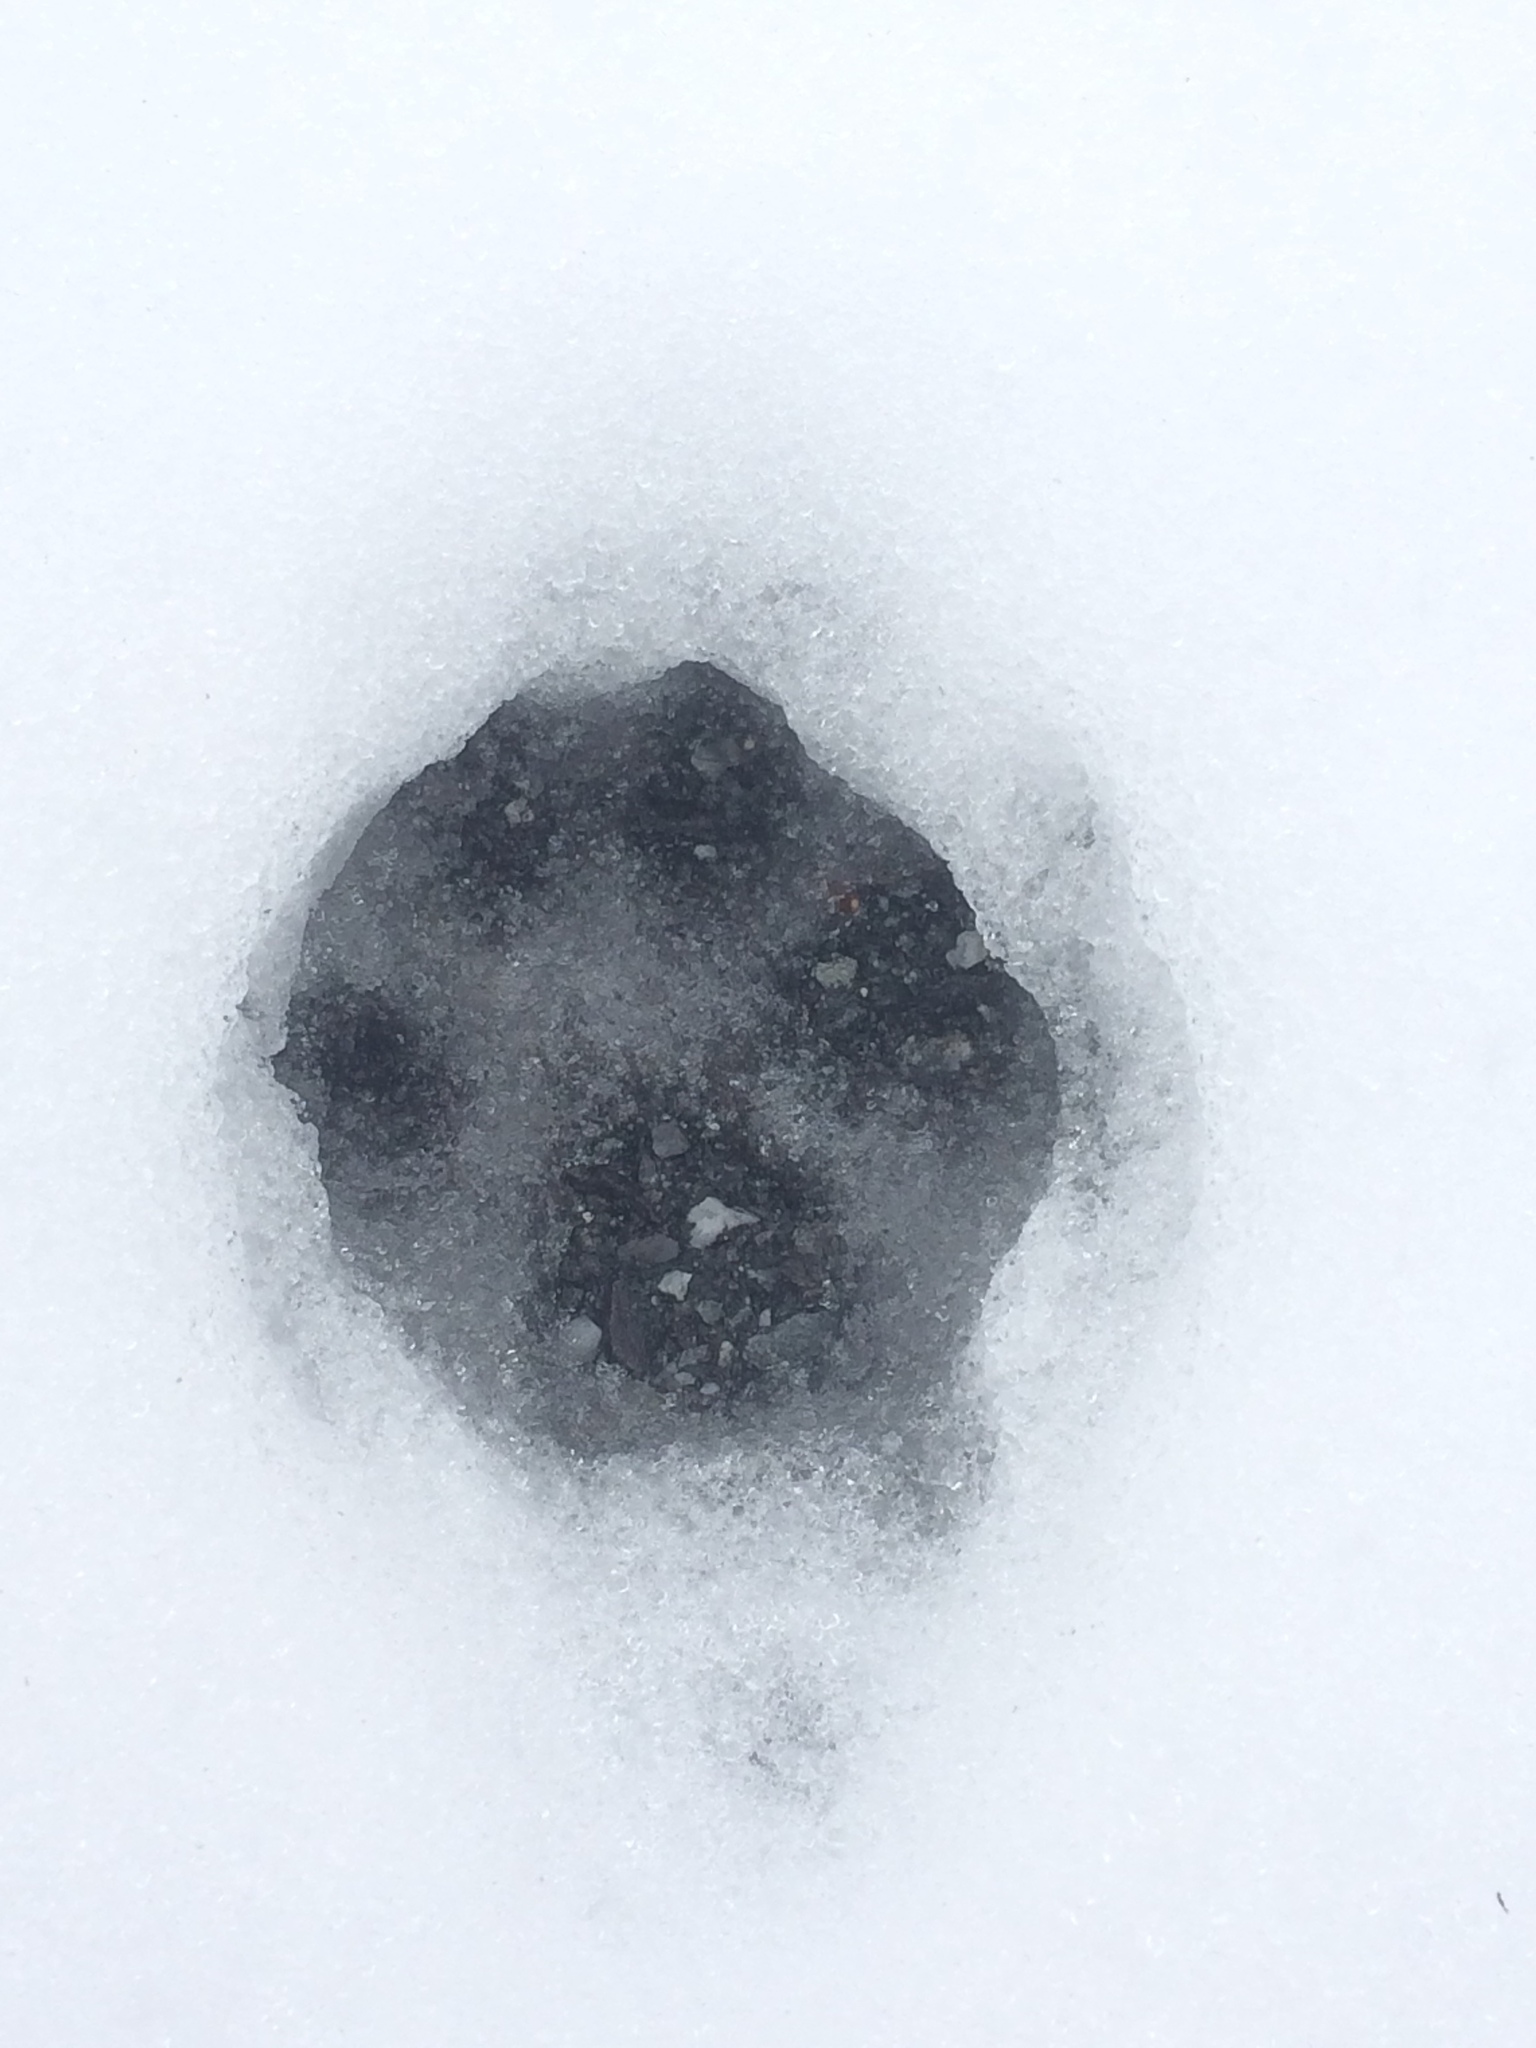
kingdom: Animalia
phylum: Chordata
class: Mammalia
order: Carnivora
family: Canidae
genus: Canis
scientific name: Canis latrans
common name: Coyote
